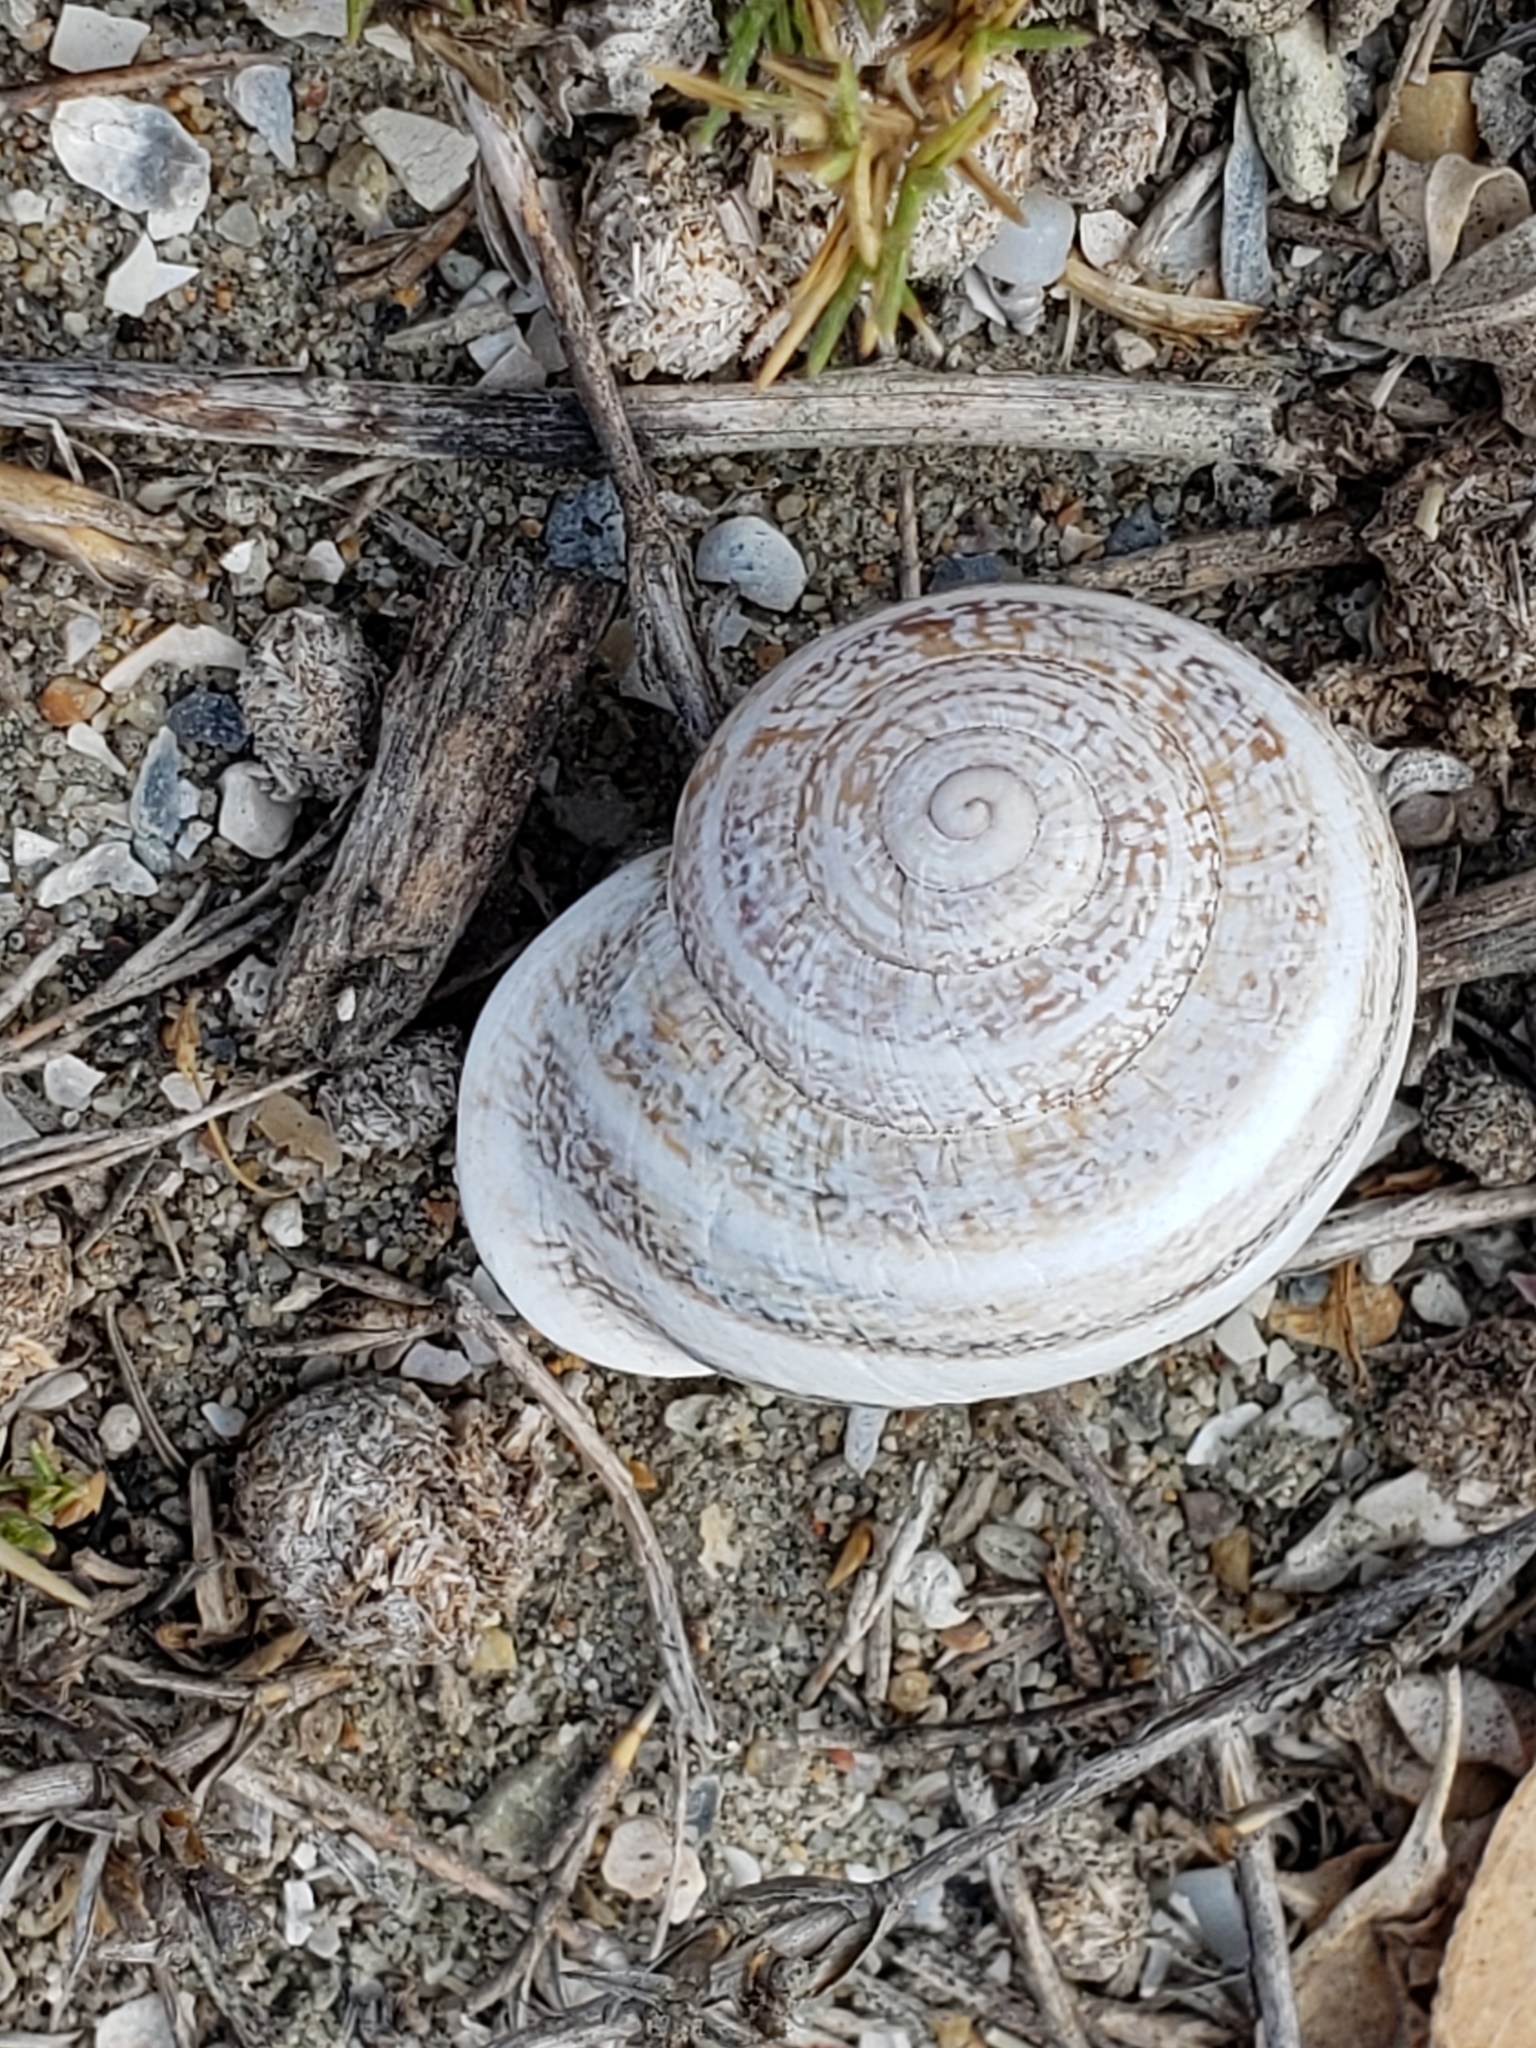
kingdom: Animalia
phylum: Mollusca
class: Gastropoda
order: Stylommatophora
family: Helicidae
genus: Otala
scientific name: Otala lactea
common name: Milk snail
